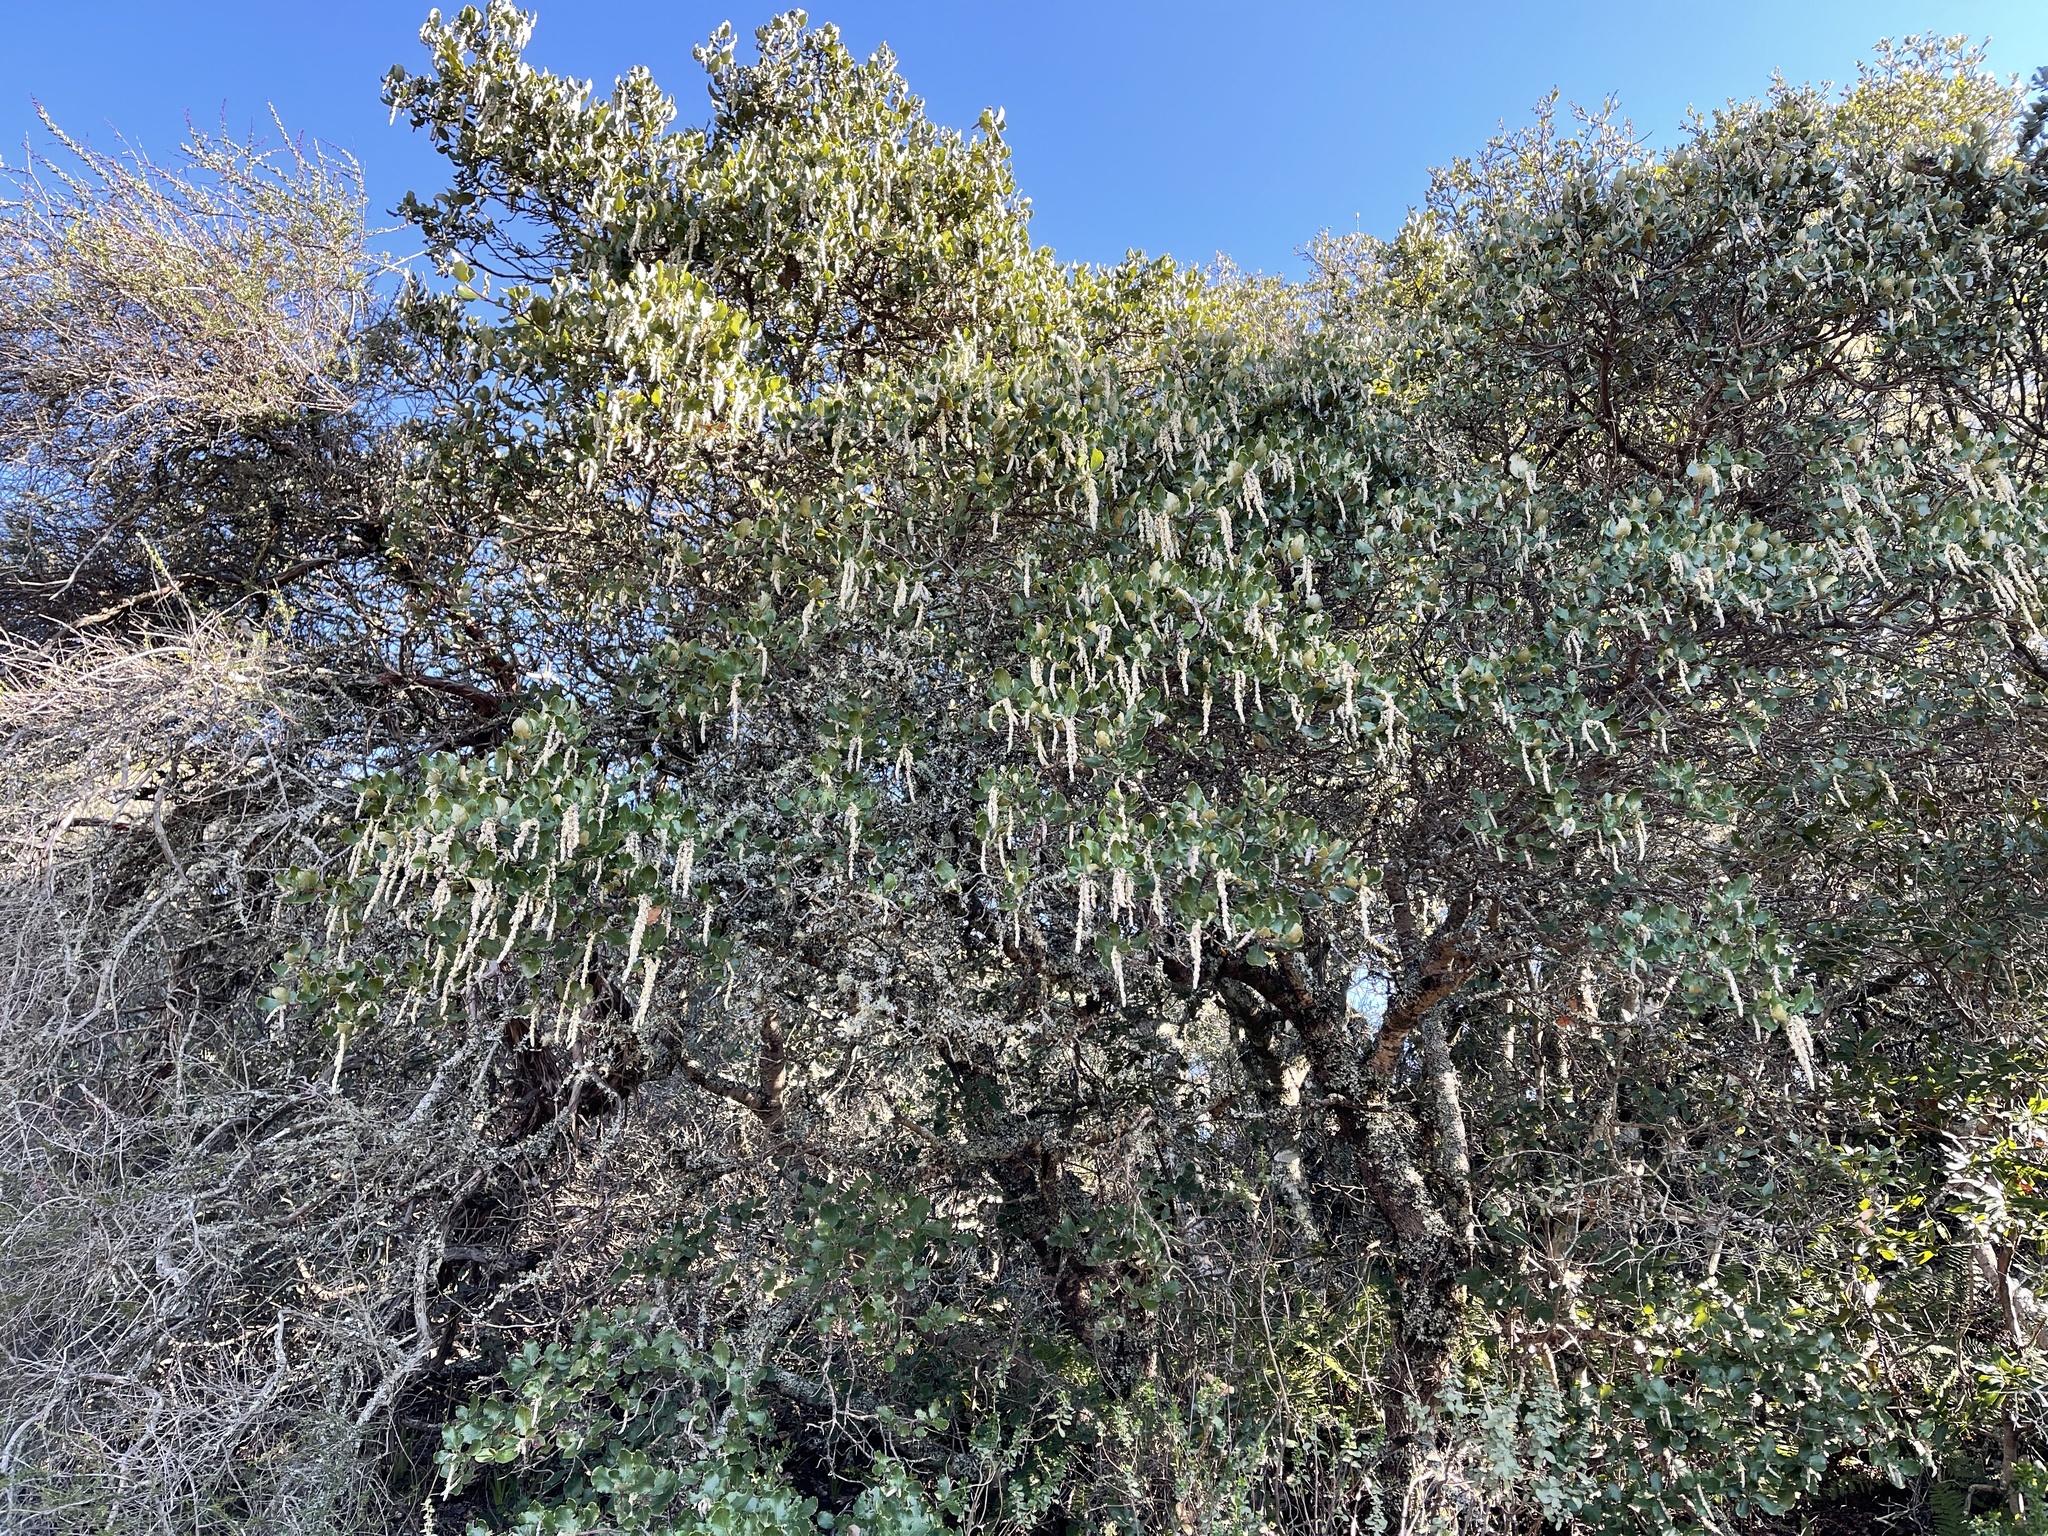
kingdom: Plantae
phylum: Tracheophyta
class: Magnoliopsida
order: Garryales
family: Garryaceae
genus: Garrya
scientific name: Garrya elliptica
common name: Silk-tassel
